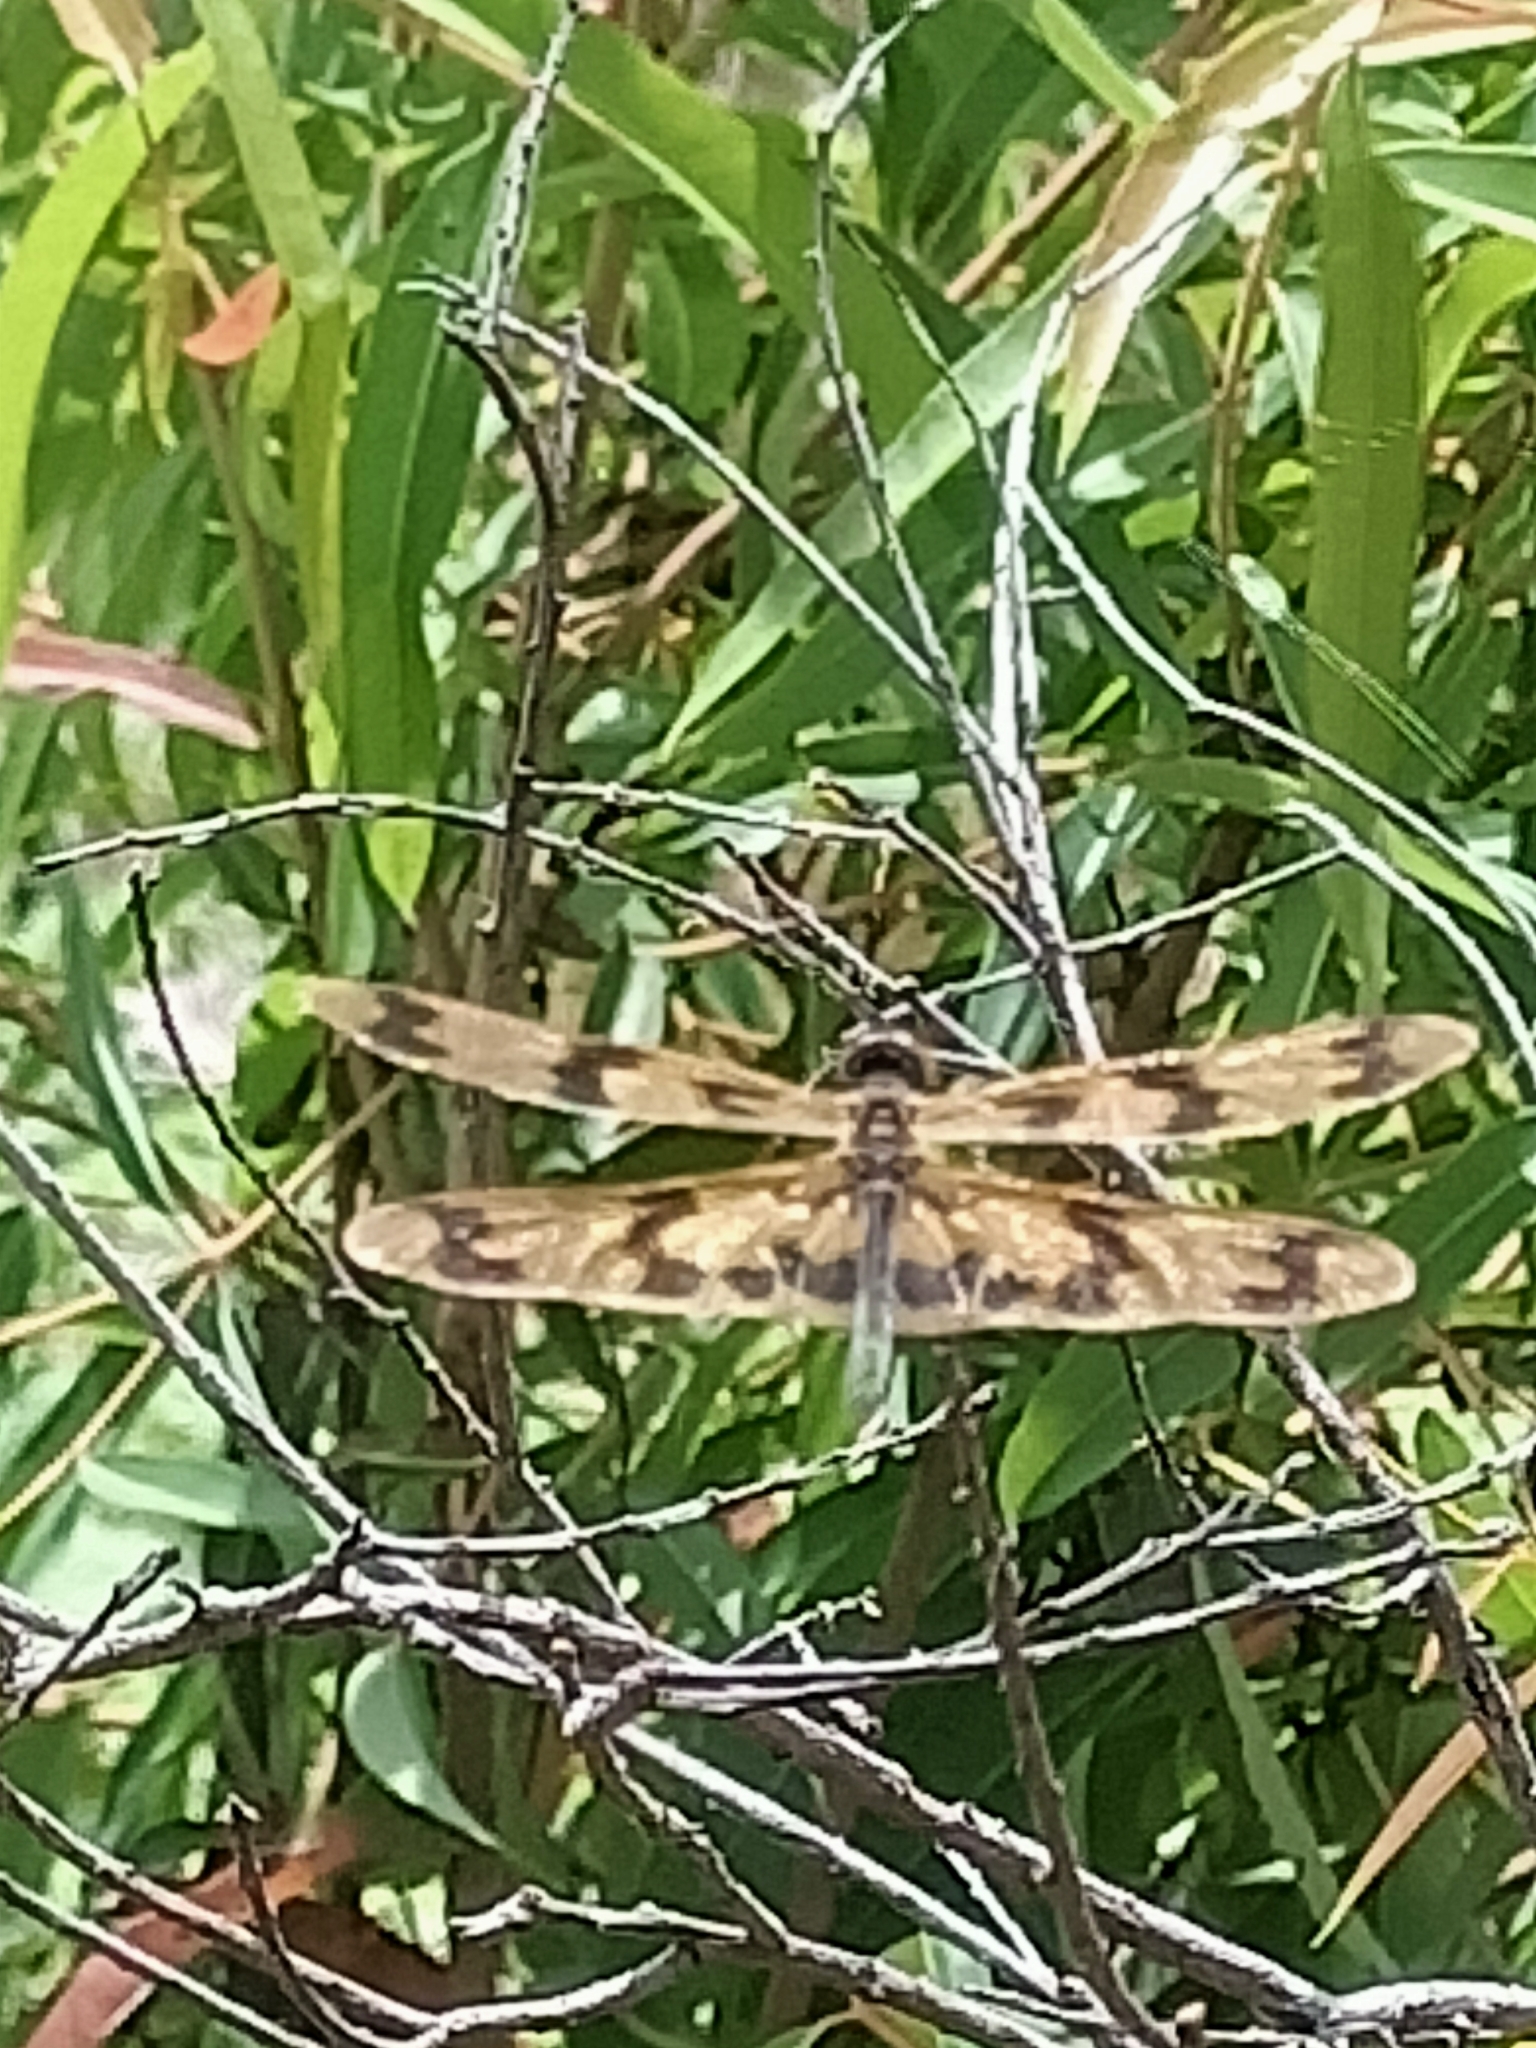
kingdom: Animalia
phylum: Arthropoda
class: Insecta
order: Odonata
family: Libellulidae
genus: Rhyothemis
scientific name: Rhyothemis graphiptera
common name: Graphic flutterer
